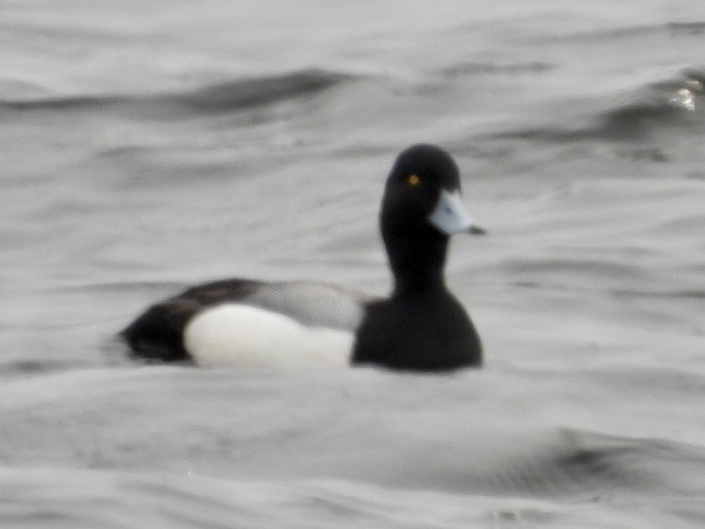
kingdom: Animalia
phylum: Chordata
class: Aves
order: Anseriformes
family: Anatidae
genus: Aythya
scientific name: Aythya marila
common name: Greater scaup
